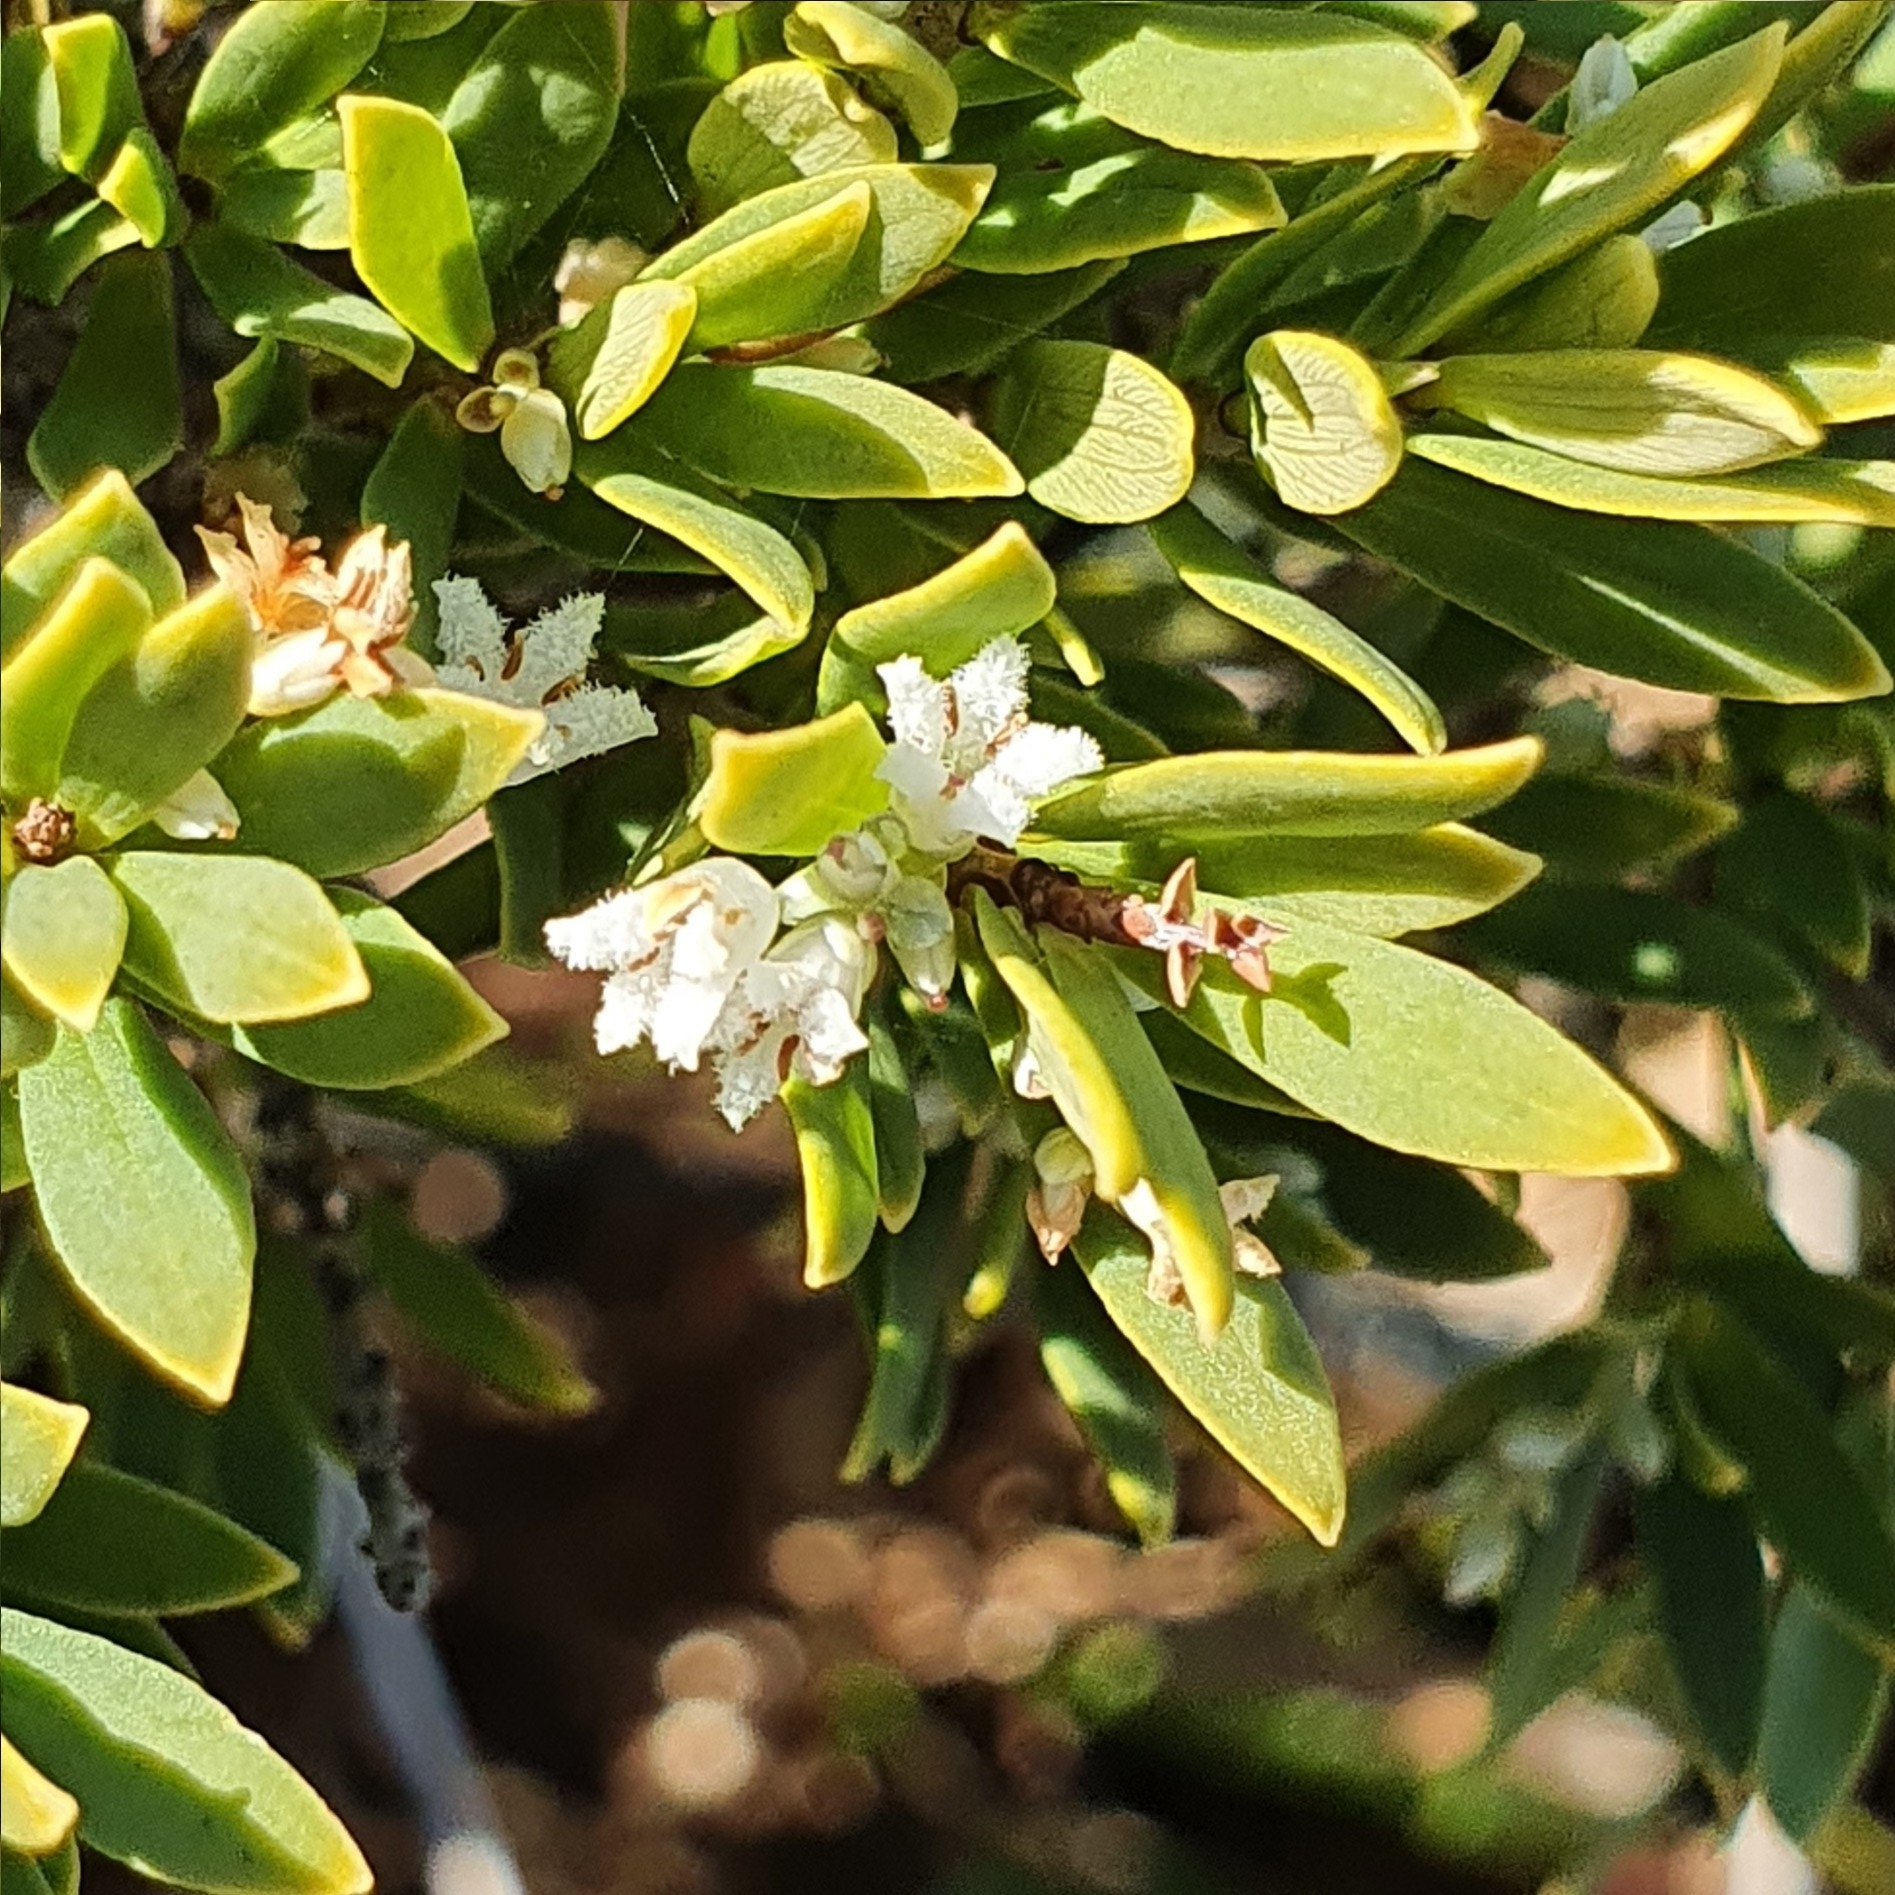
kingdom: Plantae
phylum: Tracheophyta
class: Magnoliopsida
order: Ericales
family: Ericaceae
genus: Leptecophylla
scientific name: Leptecophylla parvifolia
